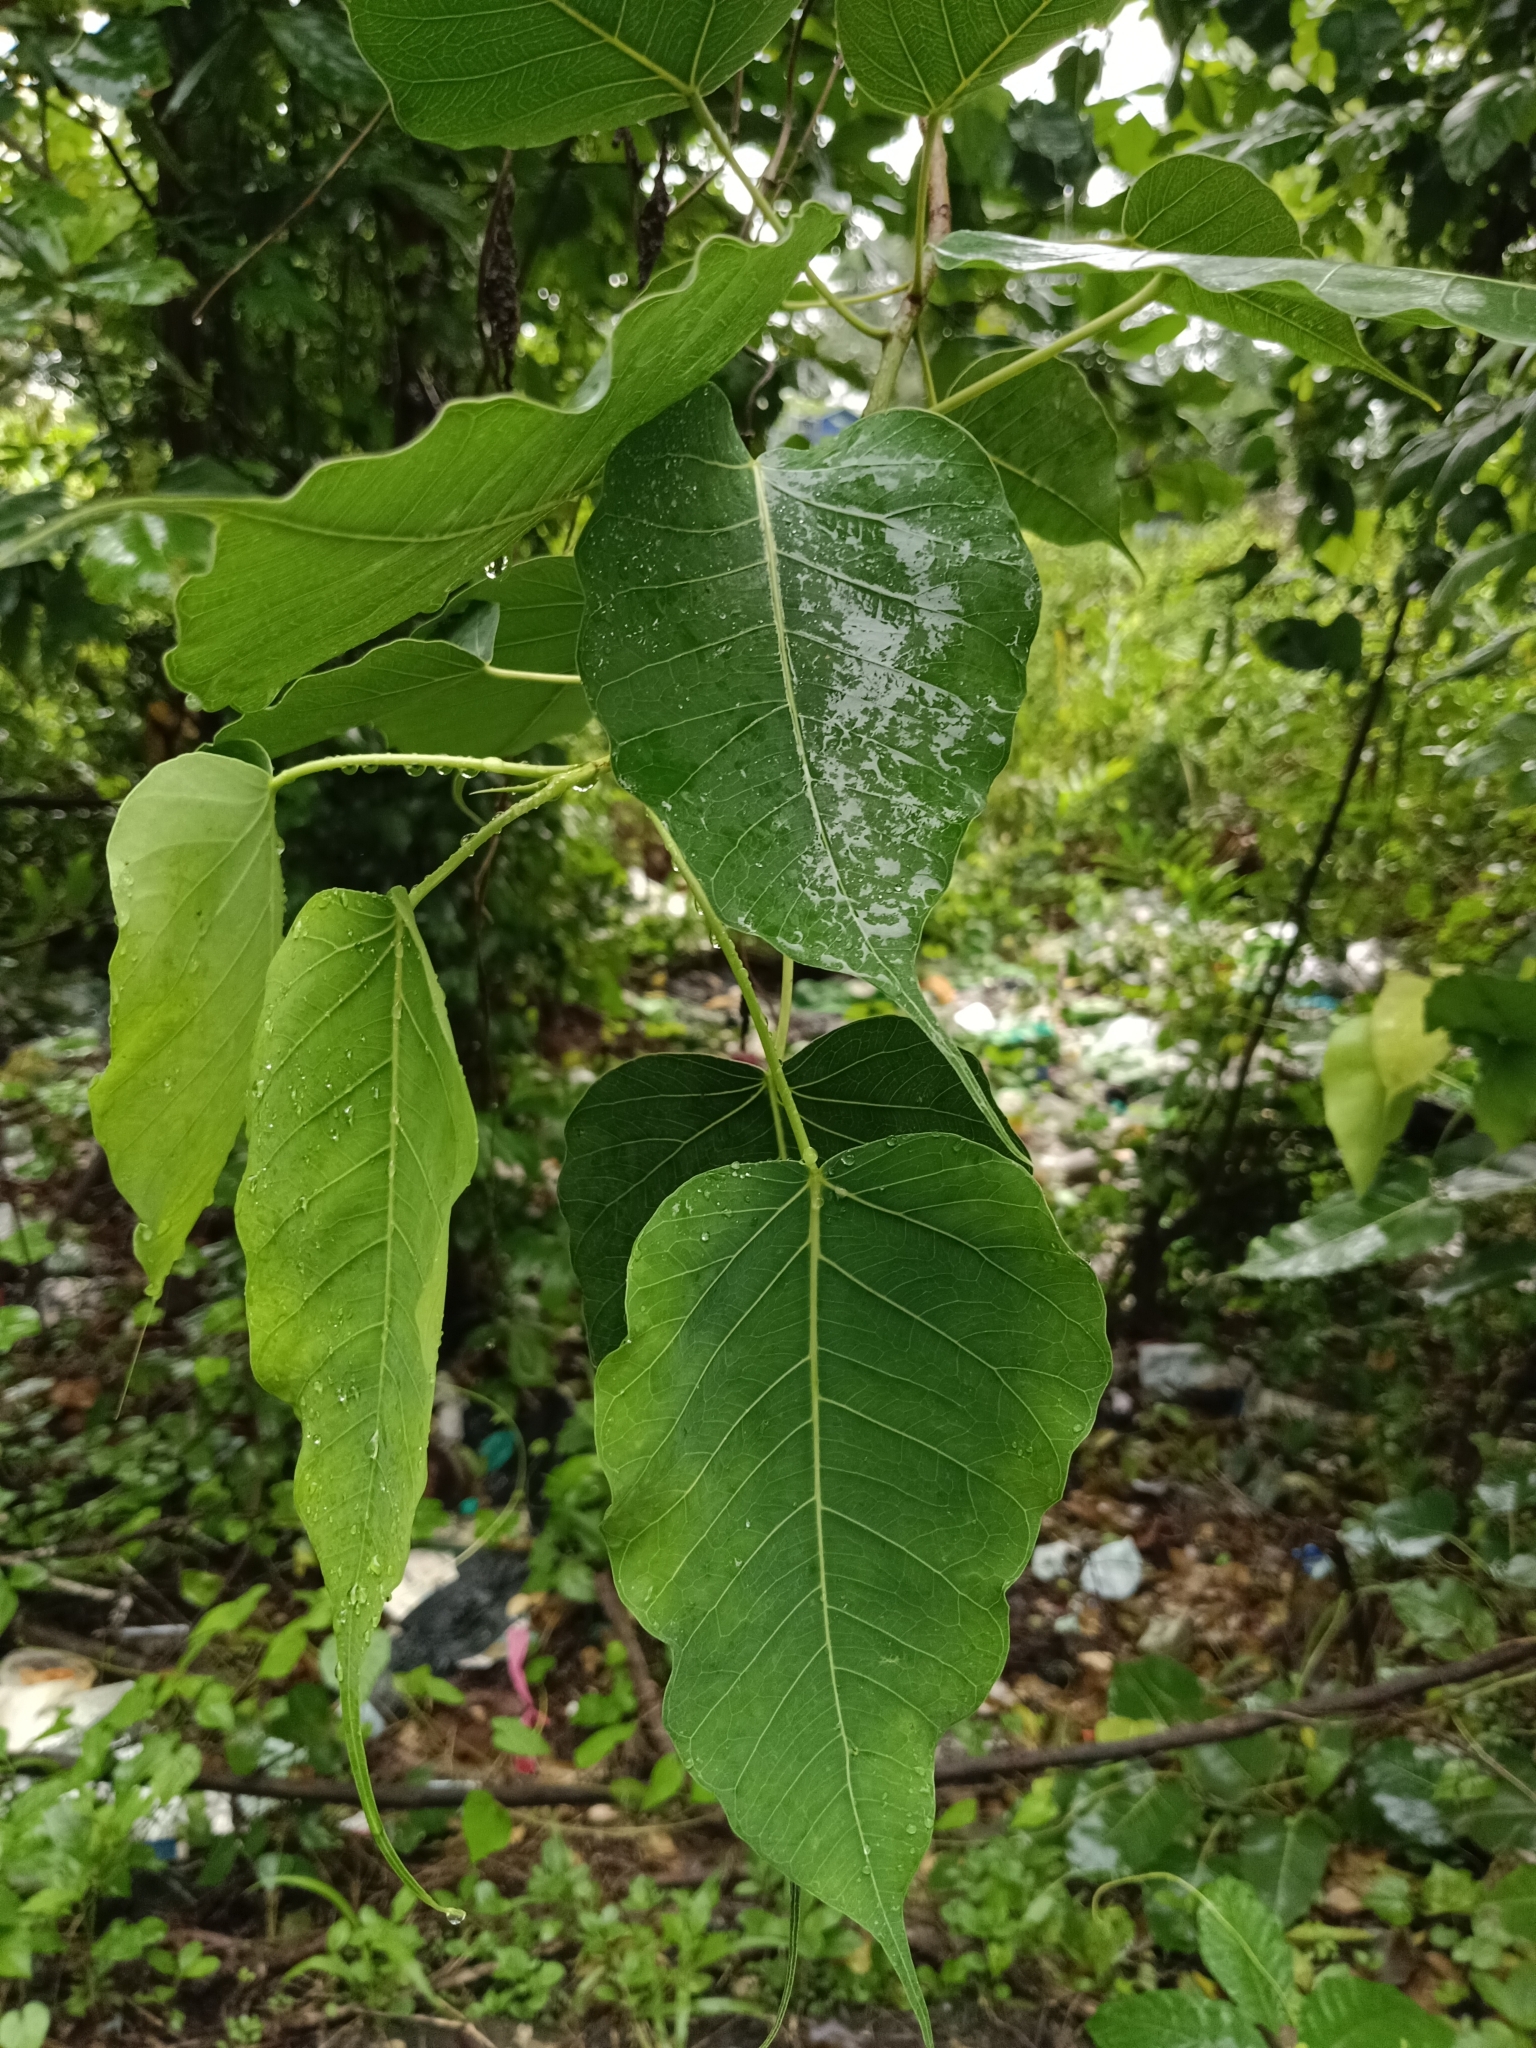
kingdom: Plantae
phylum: Tracheophyta
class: Magnoliopsida
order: Rosales
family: Moraceae
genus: Ficus
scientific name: Ficus religiosa
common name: Bodhi tree
